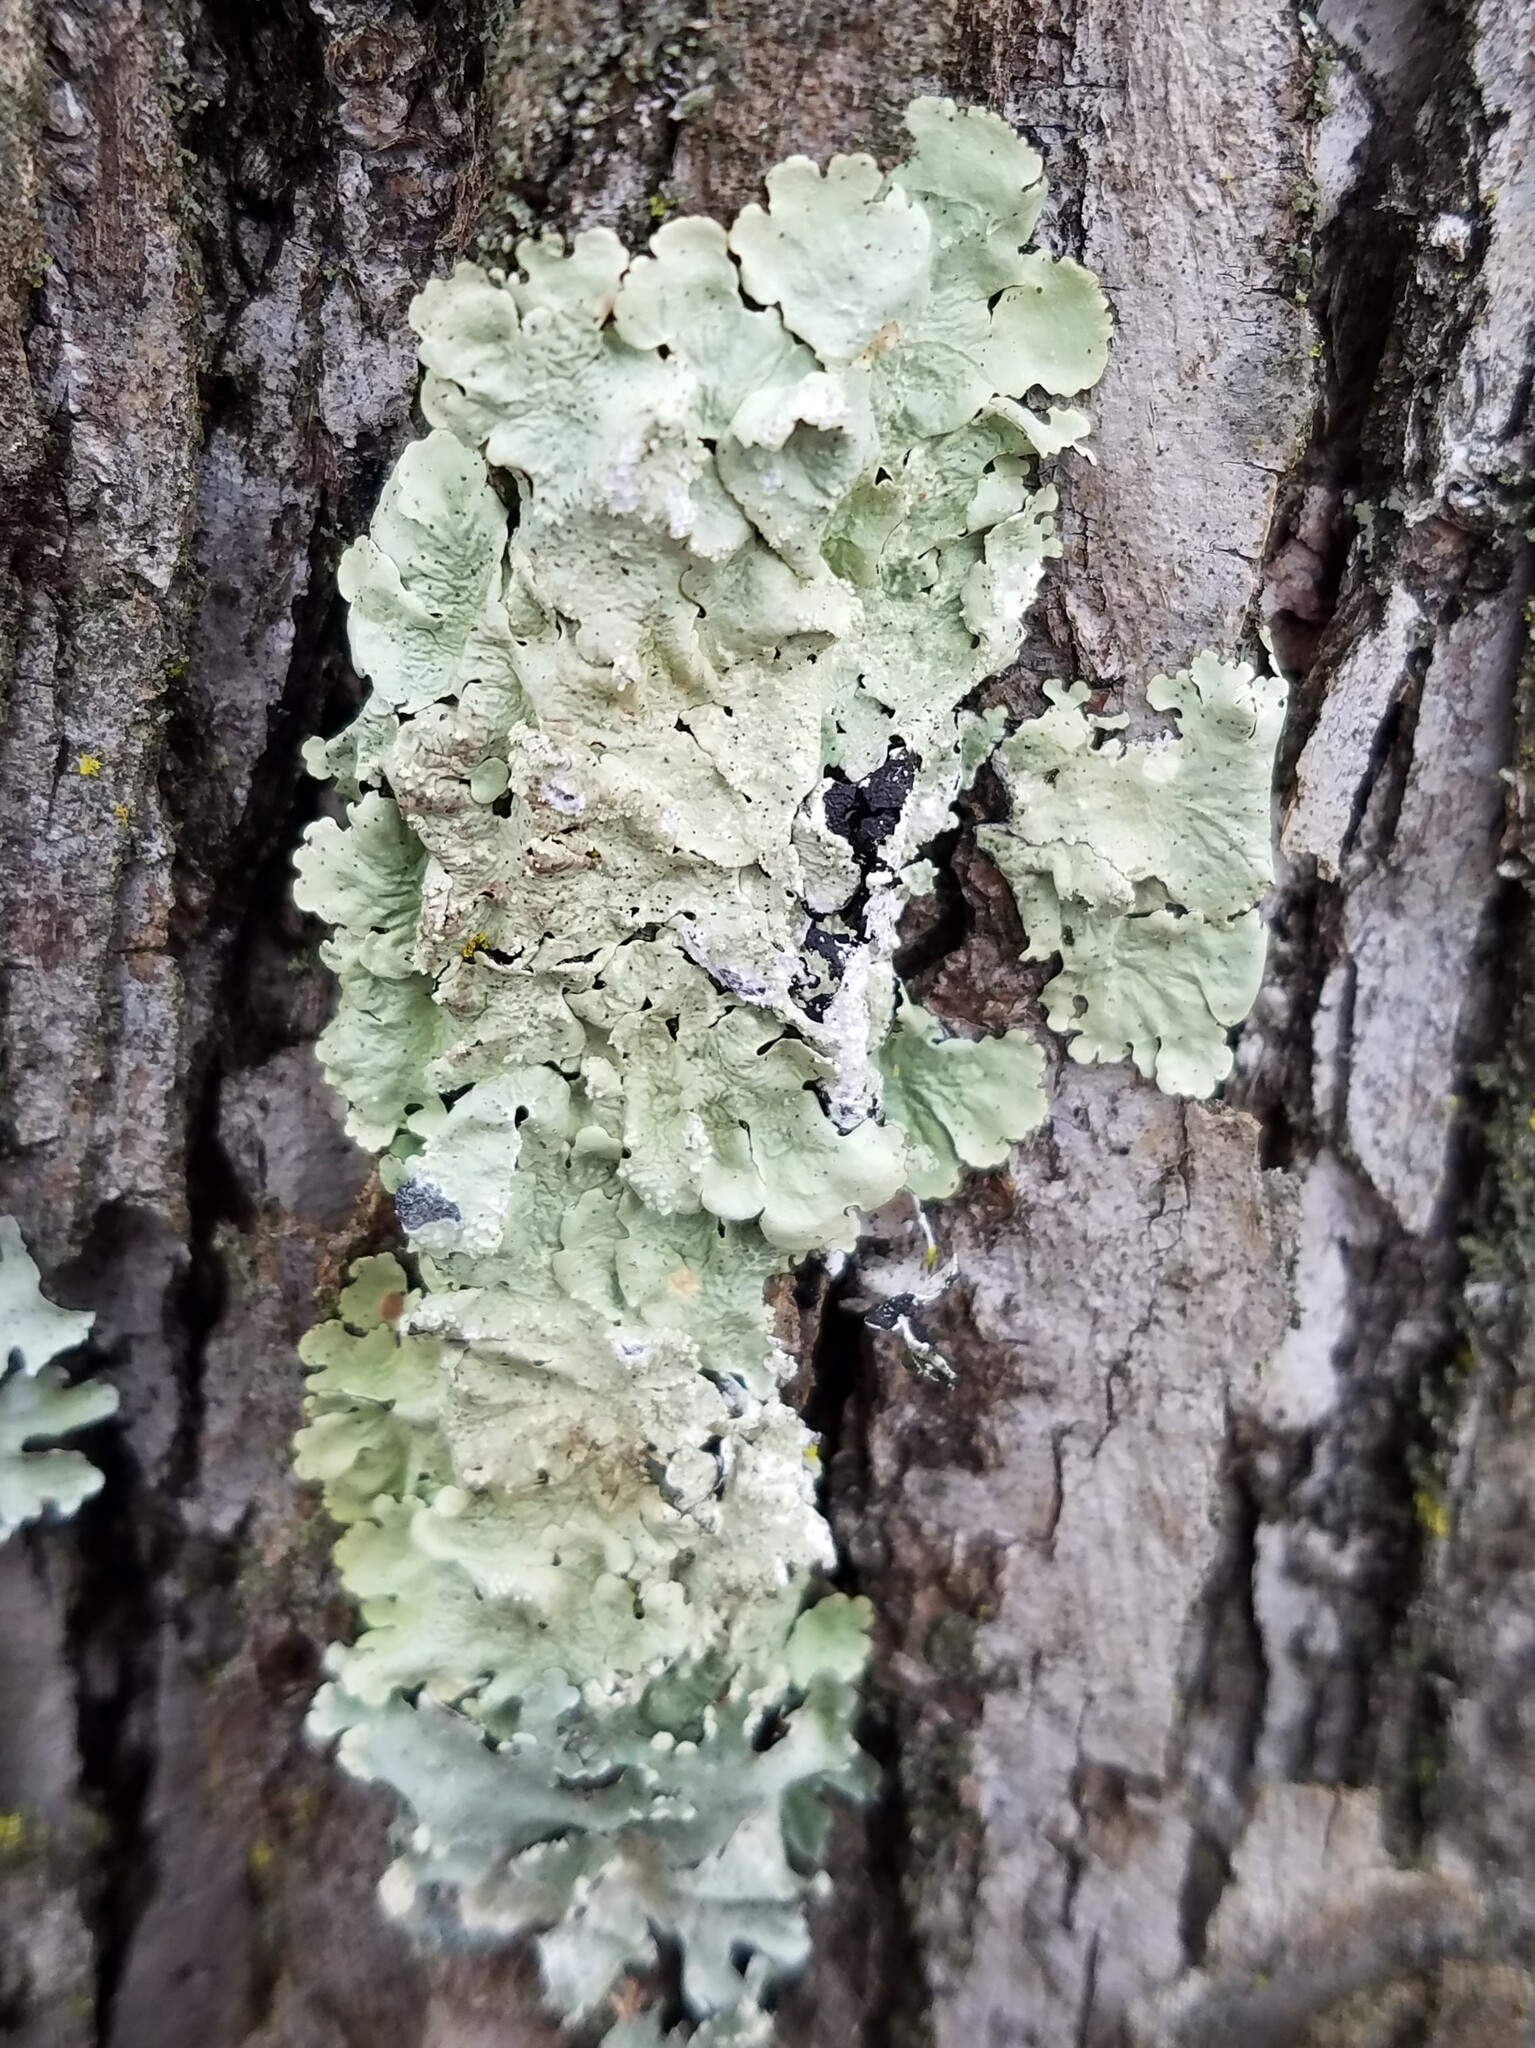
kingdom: Fungi
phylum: Ascomycota
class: Lecanoromycetes
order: Lecanorales
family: Parmeliaceae
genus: Flavoparmelia
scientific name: Flavoparmelia caperata
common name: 40-mile per hour lichen
